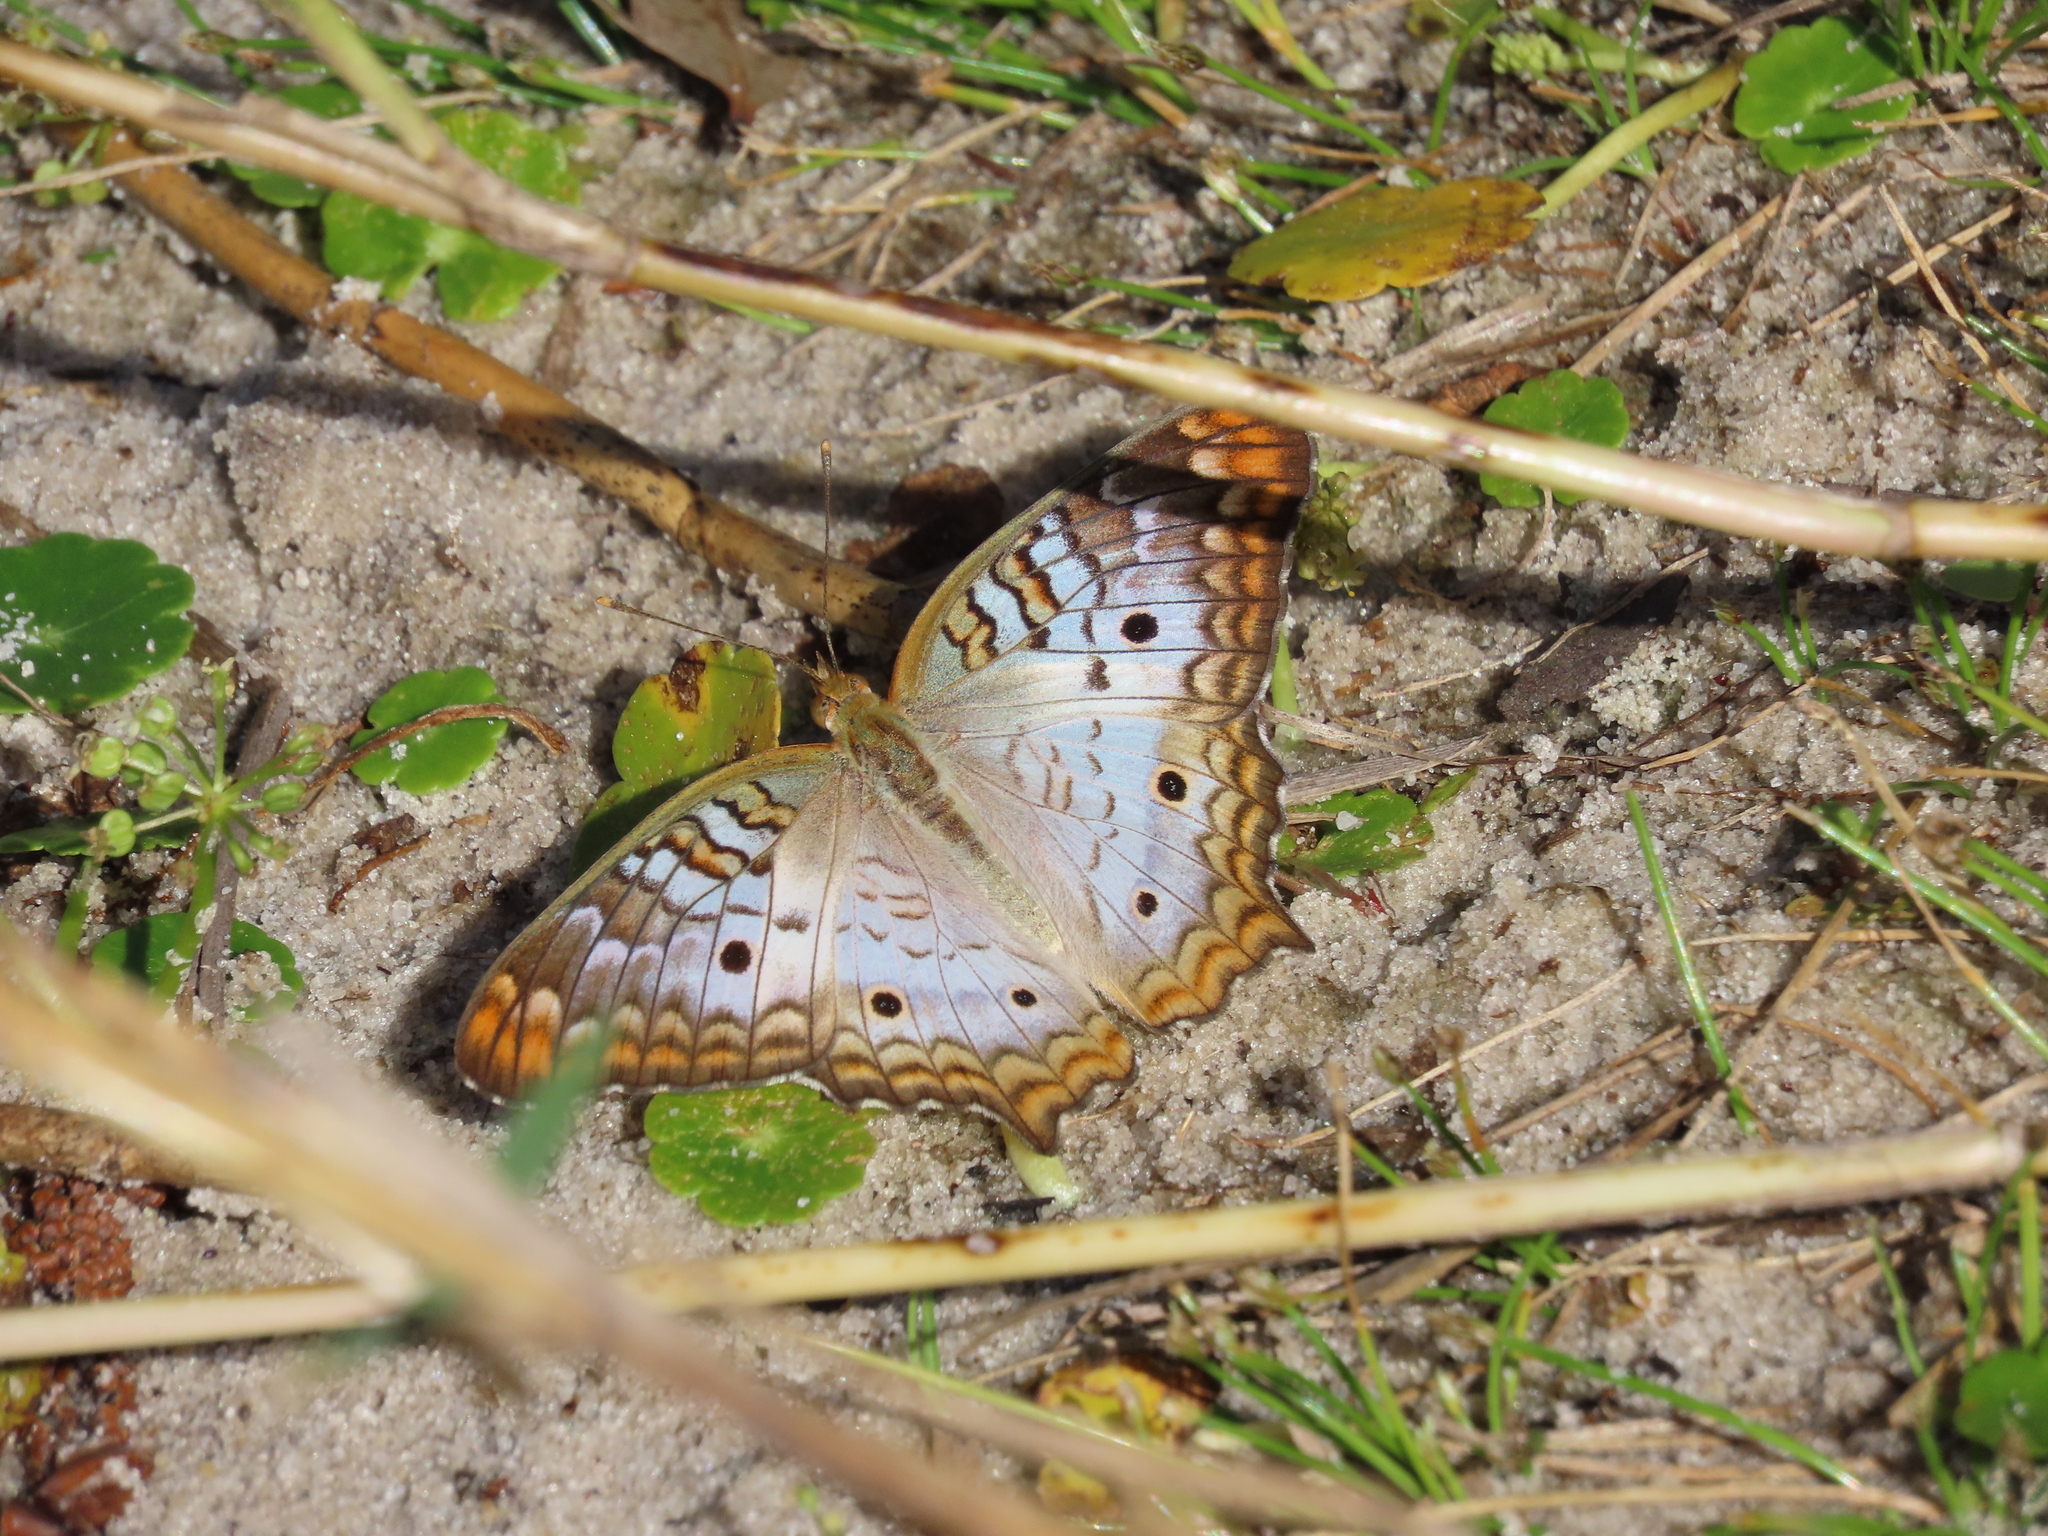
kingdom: Animalia
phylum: Arthropoda
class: Insecta
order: Lepidoptera
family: Nymphalidae
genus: Anartia
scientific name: Anartia jatrophae
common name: White peacock
